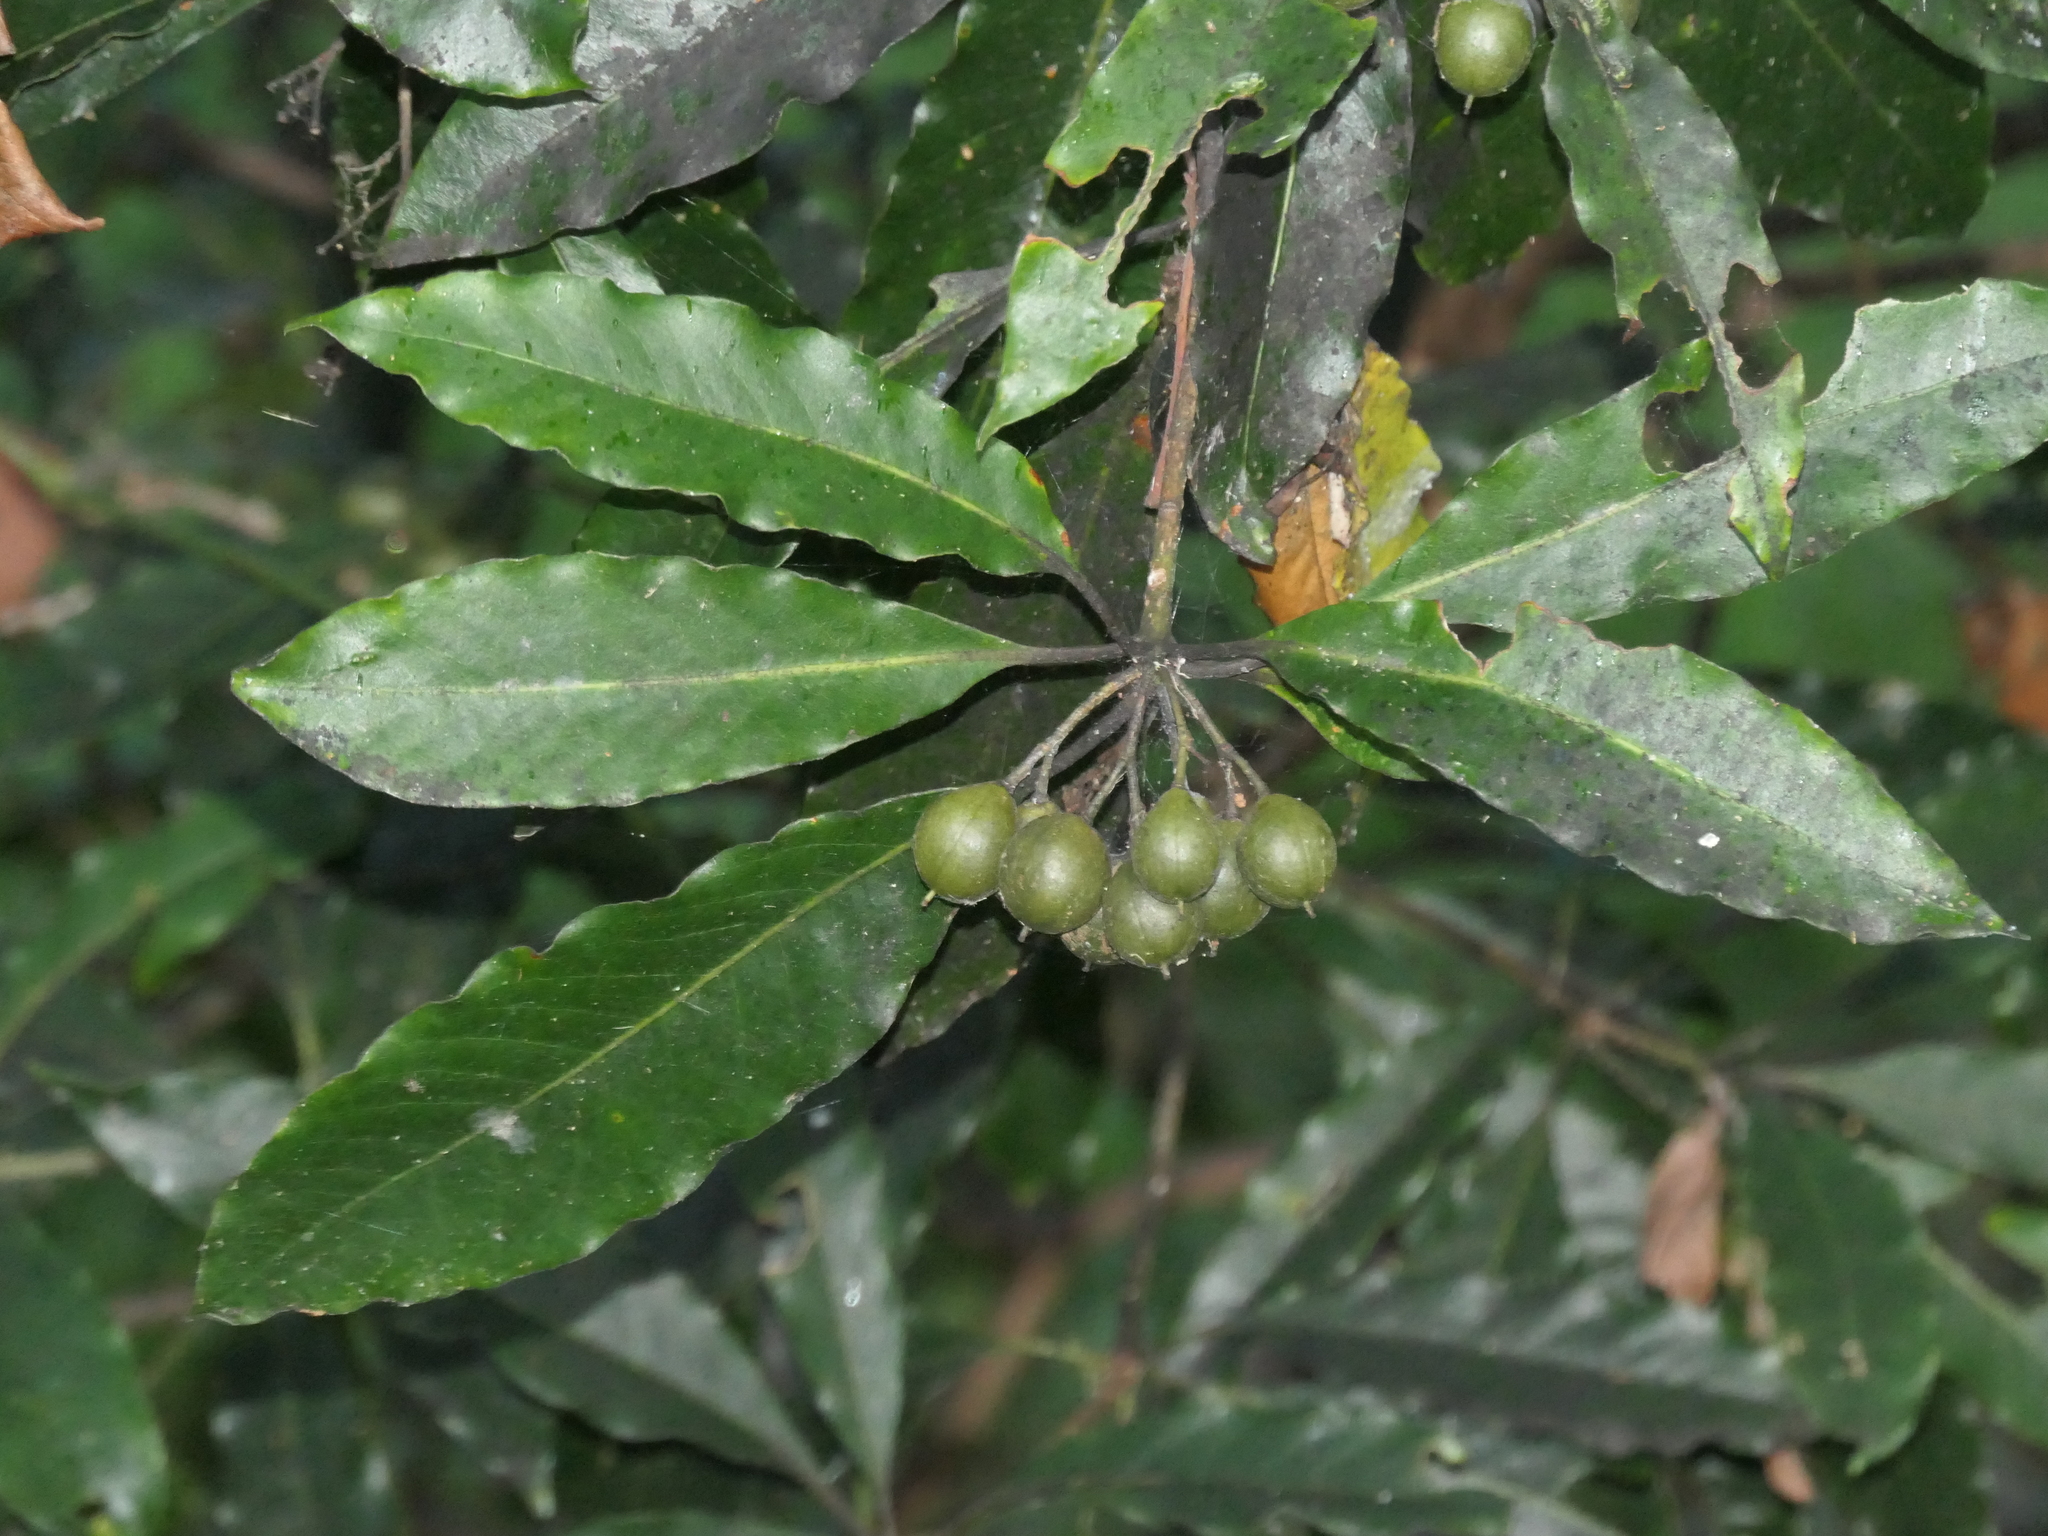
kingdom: Plantae
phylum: Tracheophyta
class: Magnoliopsida
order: Apiales
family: Pittosporaceae
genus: Pittosporum
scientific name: Pittosporum undulatum
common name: Australian cheesewood
